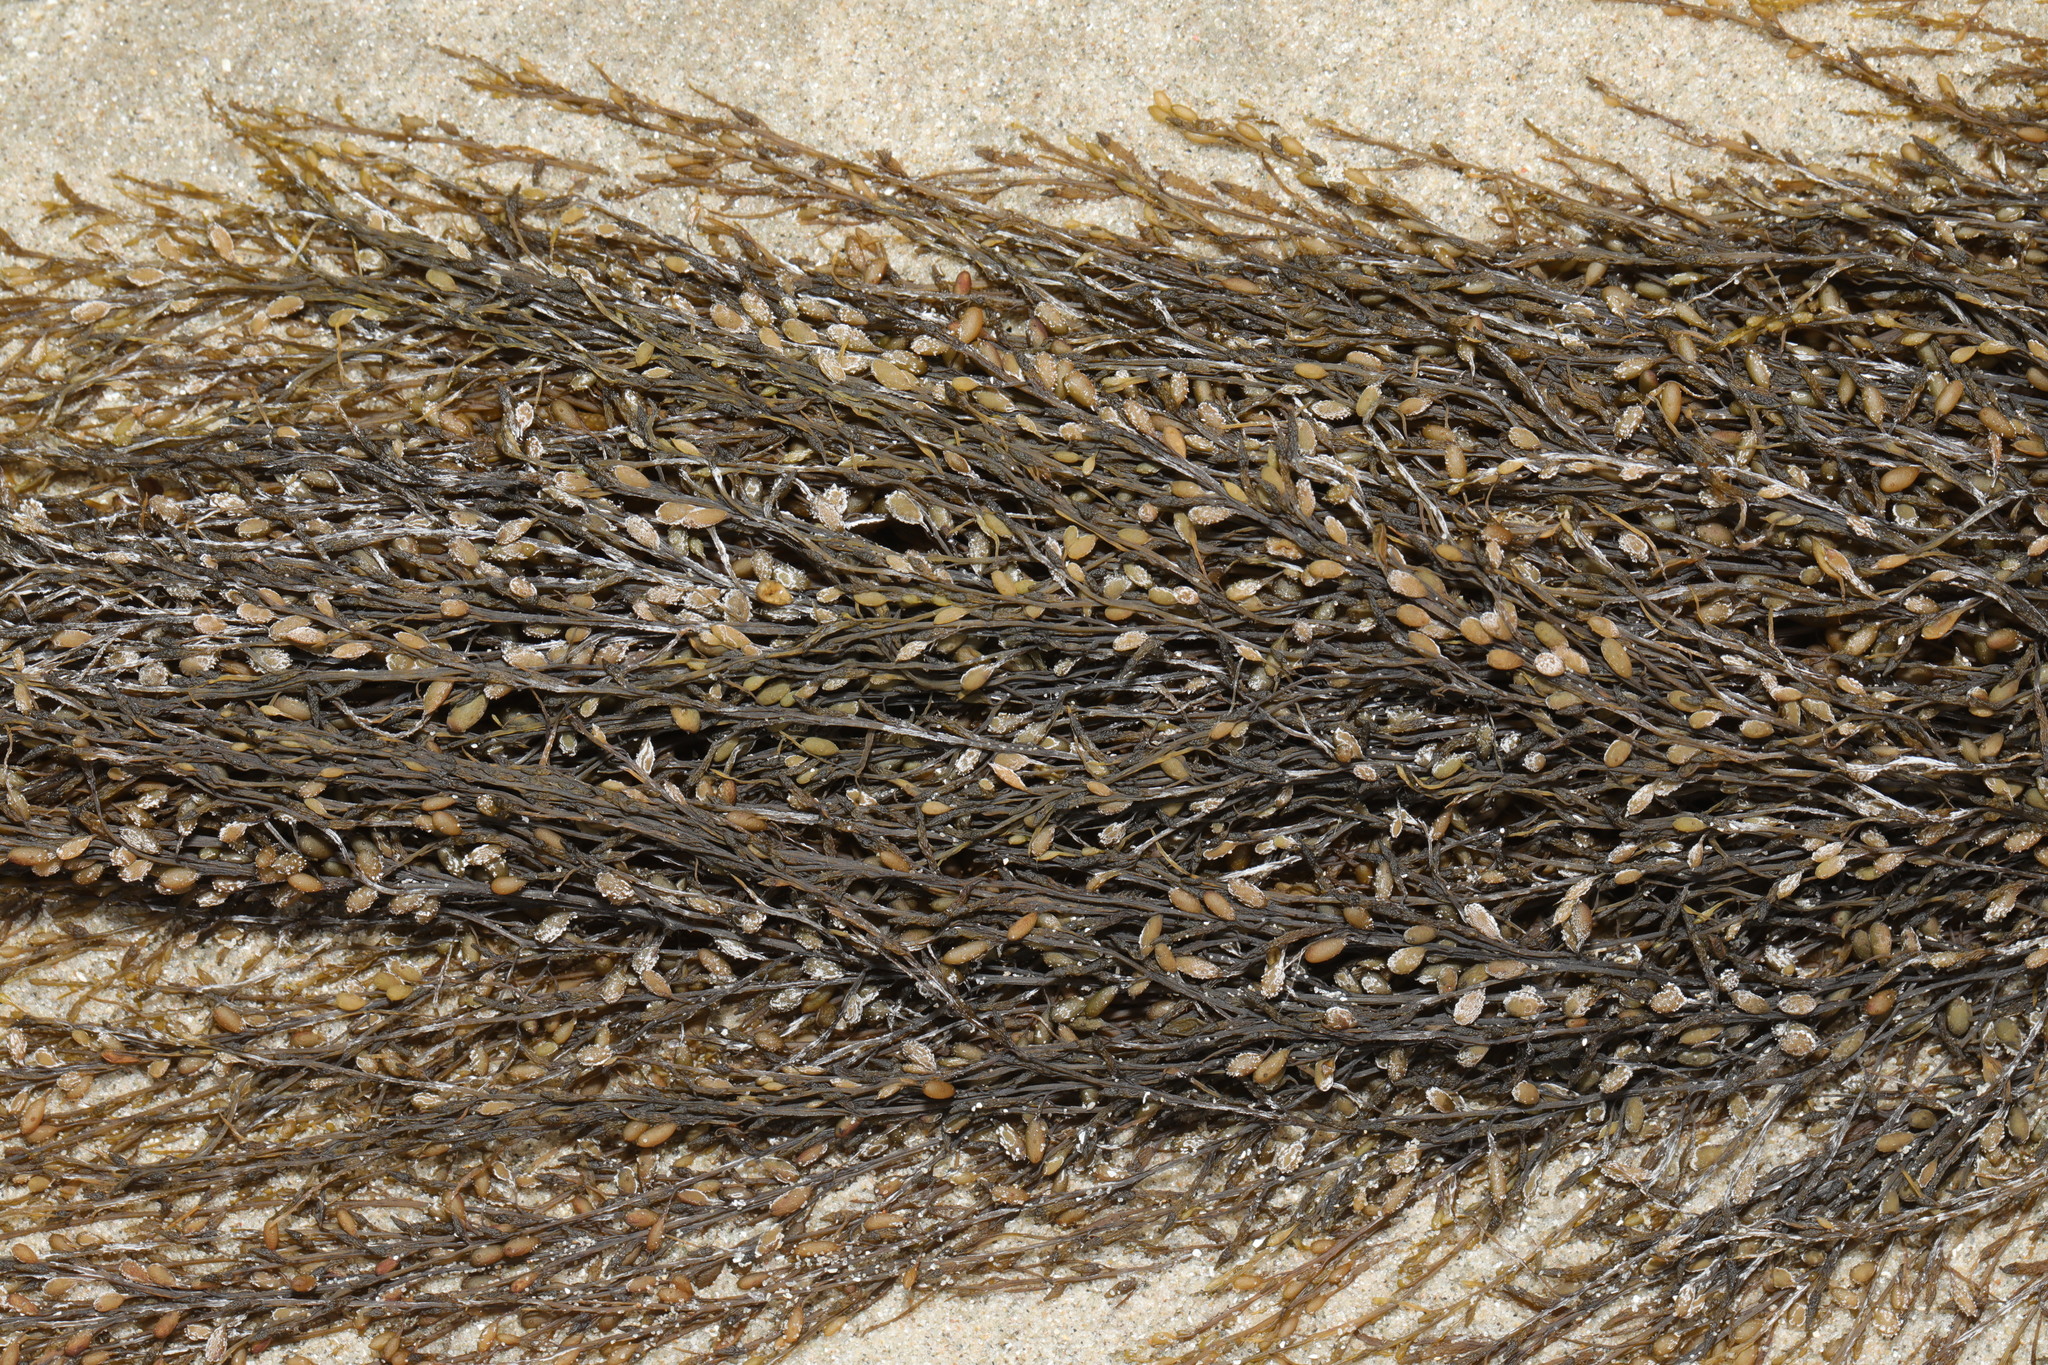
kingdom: Chromista
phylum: Ochrophyta
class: Phaeophyceae
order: Fucales
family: Sargassaceae
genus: Sargassum
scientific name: Sargassum muticum
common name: Japweed
